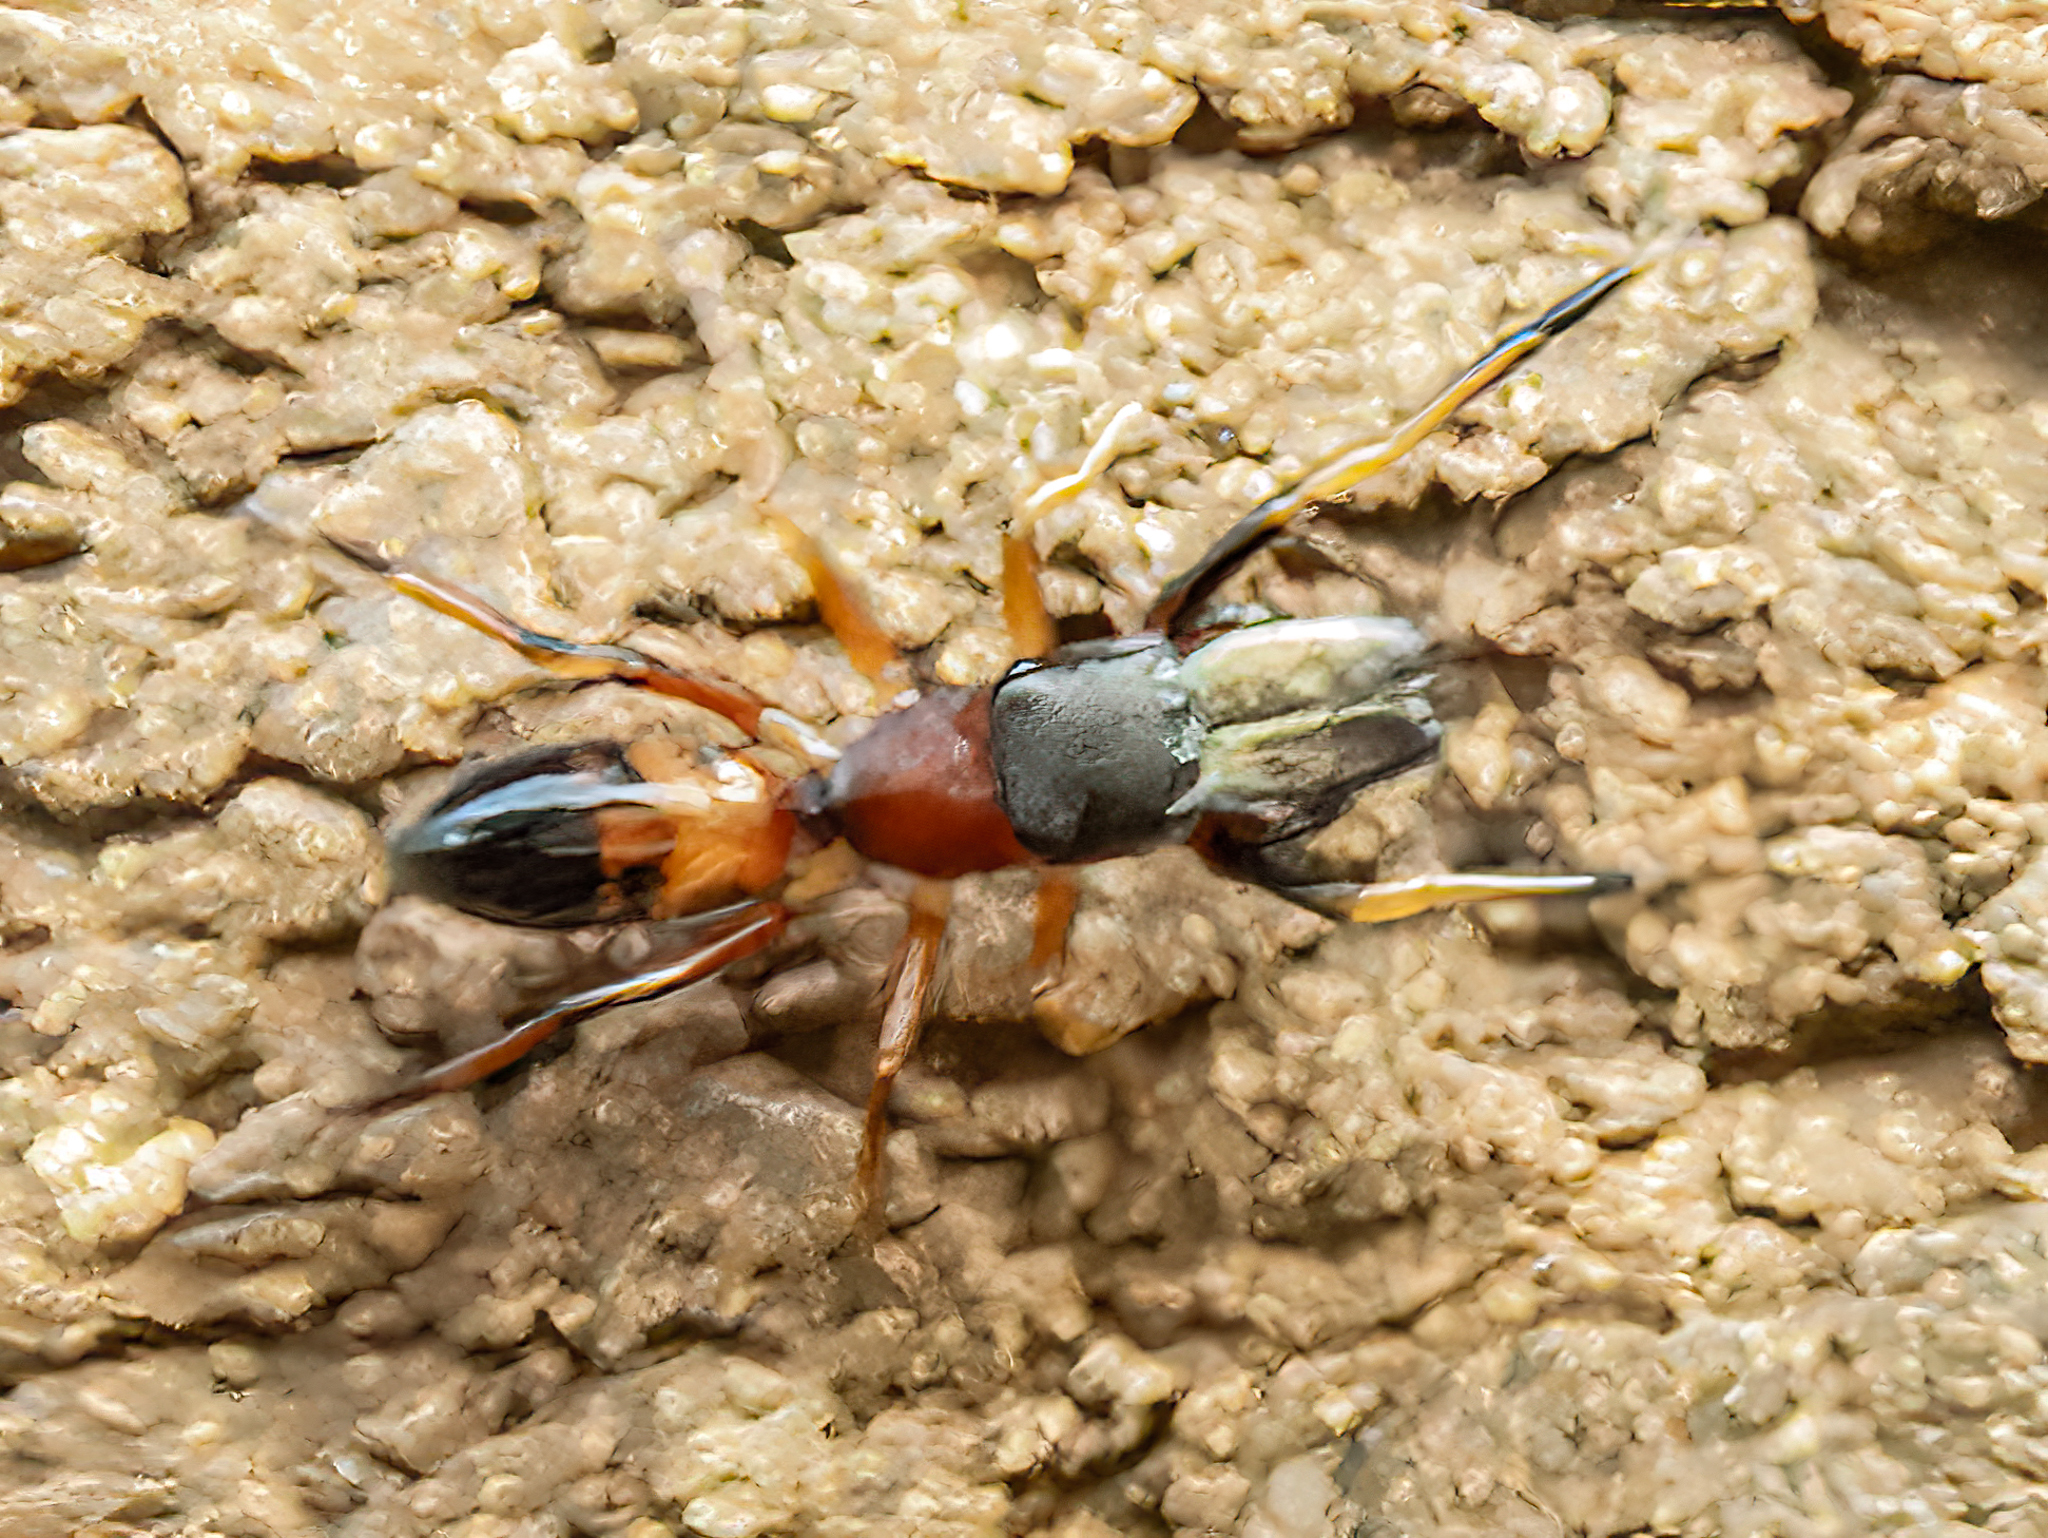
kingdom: Animalia
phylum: Arthropoda
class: Arachnida
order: Araneae
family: Salticidae
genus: Myrmarachne
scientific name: Myrmarachne formicaria
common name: Ant mimic jumping spider
